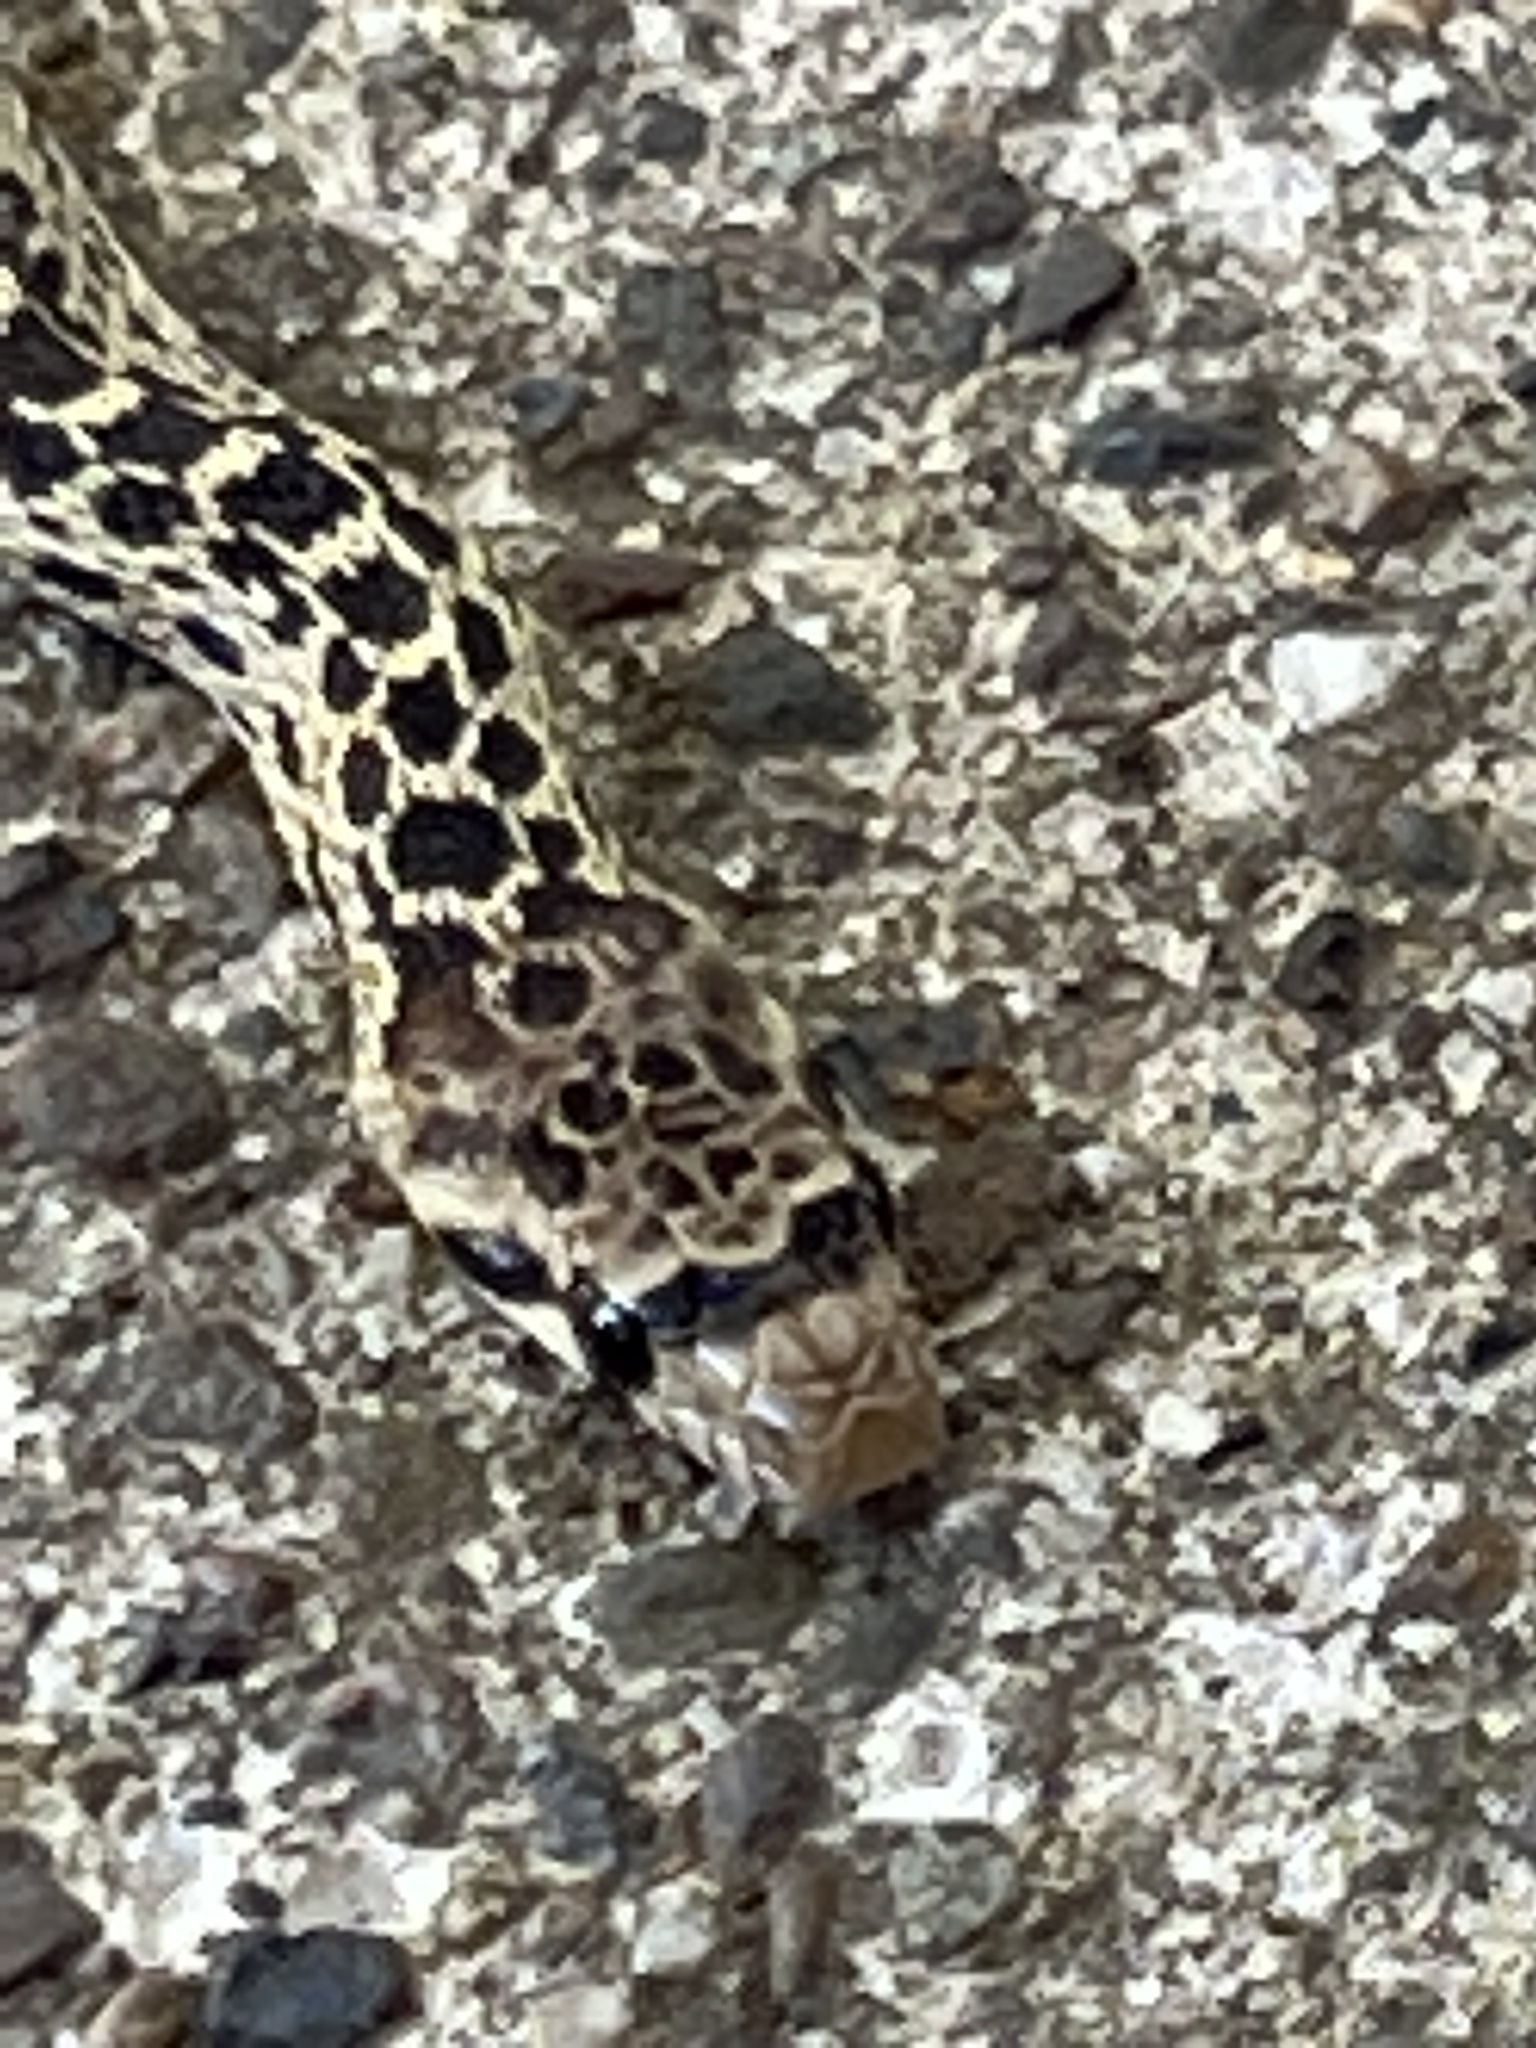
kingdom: Animalia
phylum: Chordata
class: Squamata
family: Colubridae
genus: Pituophis
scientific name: Pituophis catenifer
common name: Gopher snake
